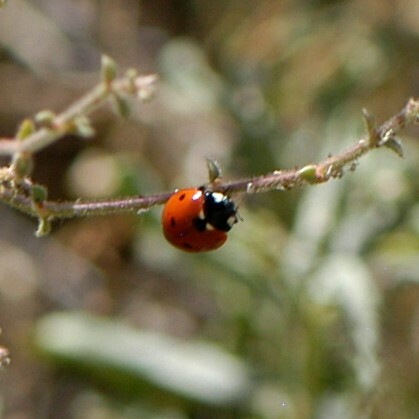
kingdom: Animalia
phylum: Arthropoda
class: Insecta
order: Coleoptera
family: Coccinellidae
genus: Coccinella
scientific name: Coccinella septempunctata
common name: Sevenspotted lady beetle
